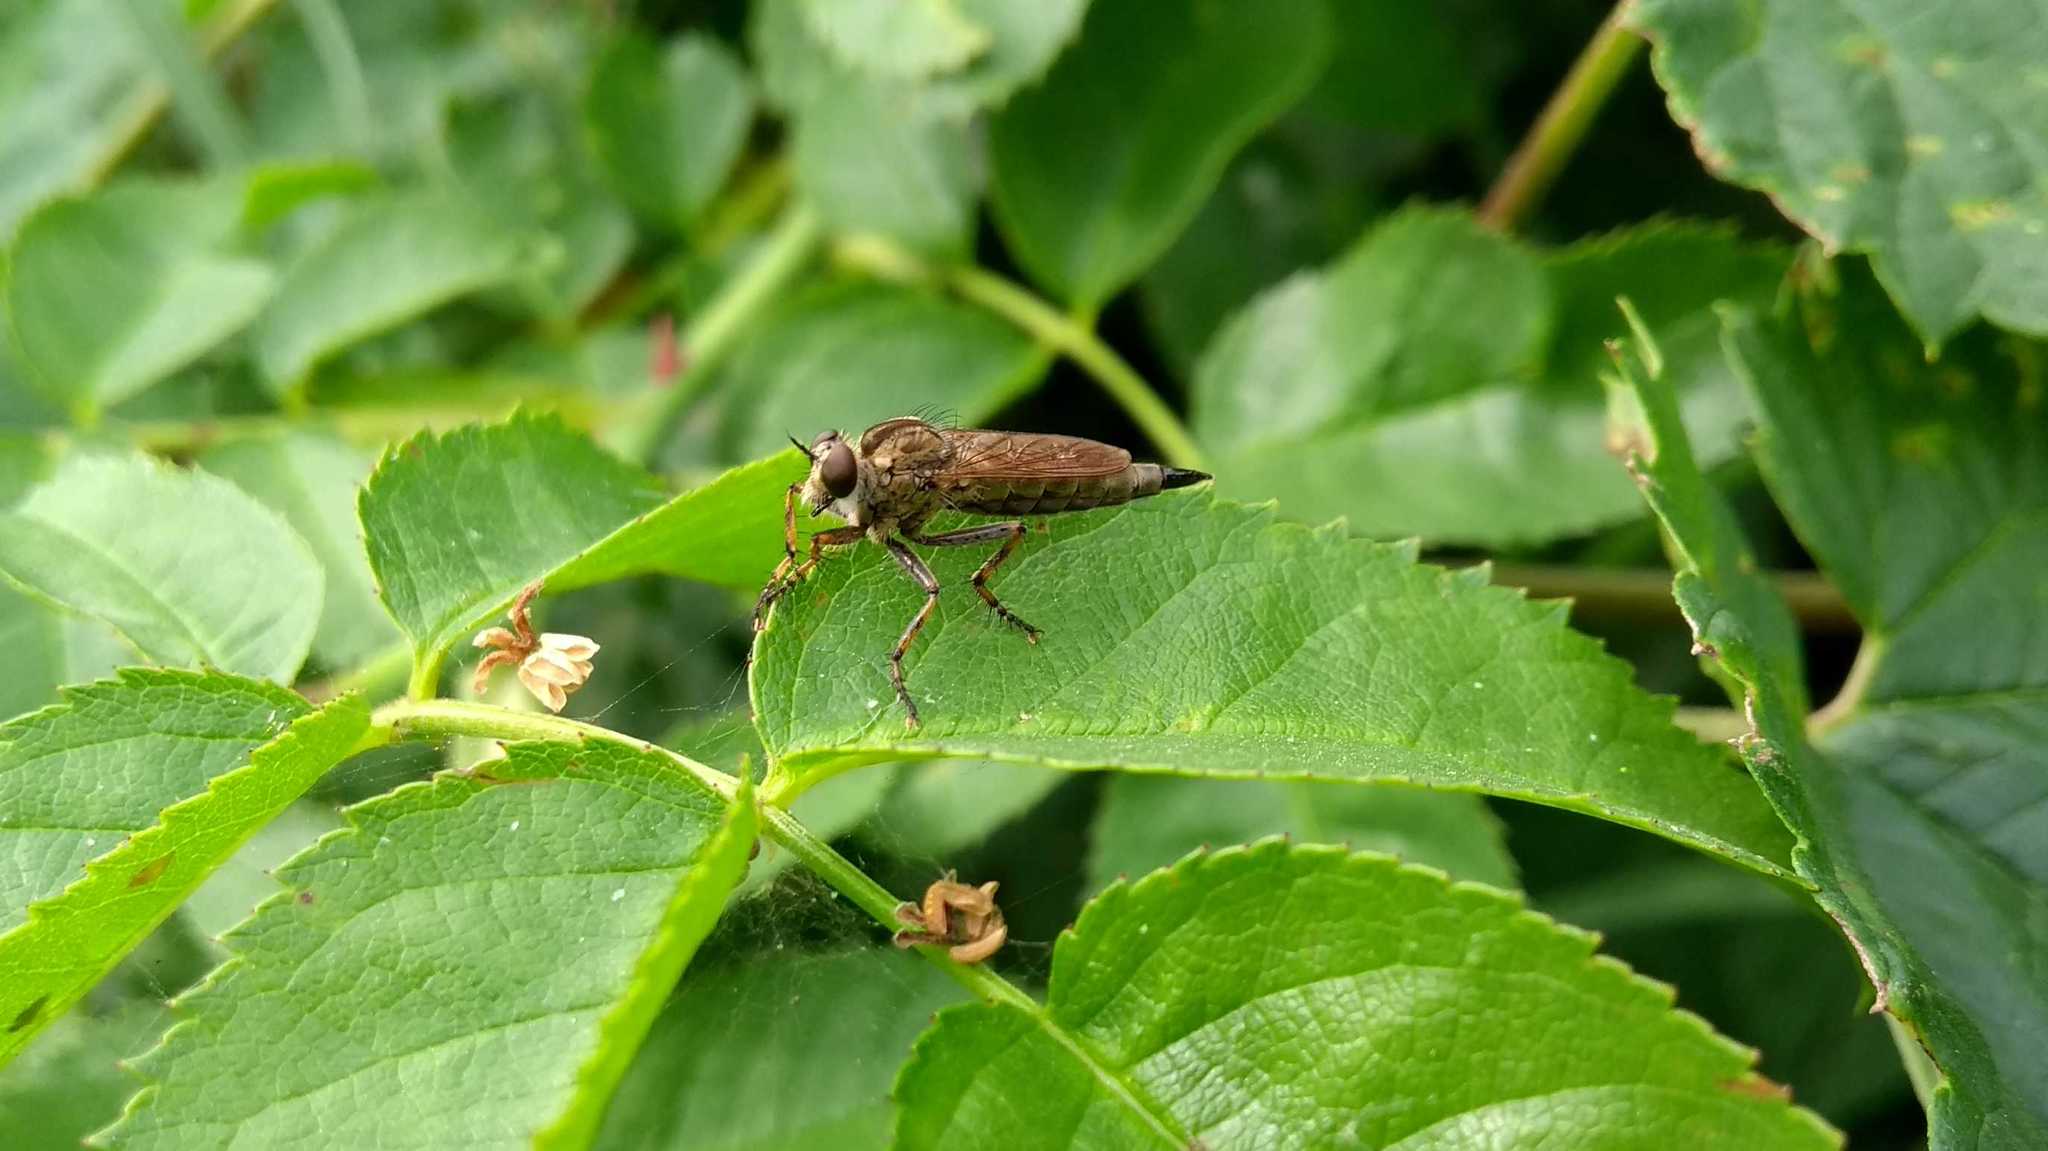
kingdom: Animalia
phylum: Arthropoda
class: Insecta
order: Diptera
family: Asilidae
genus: Epitriptus
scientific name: Epitriptus cingulatus
